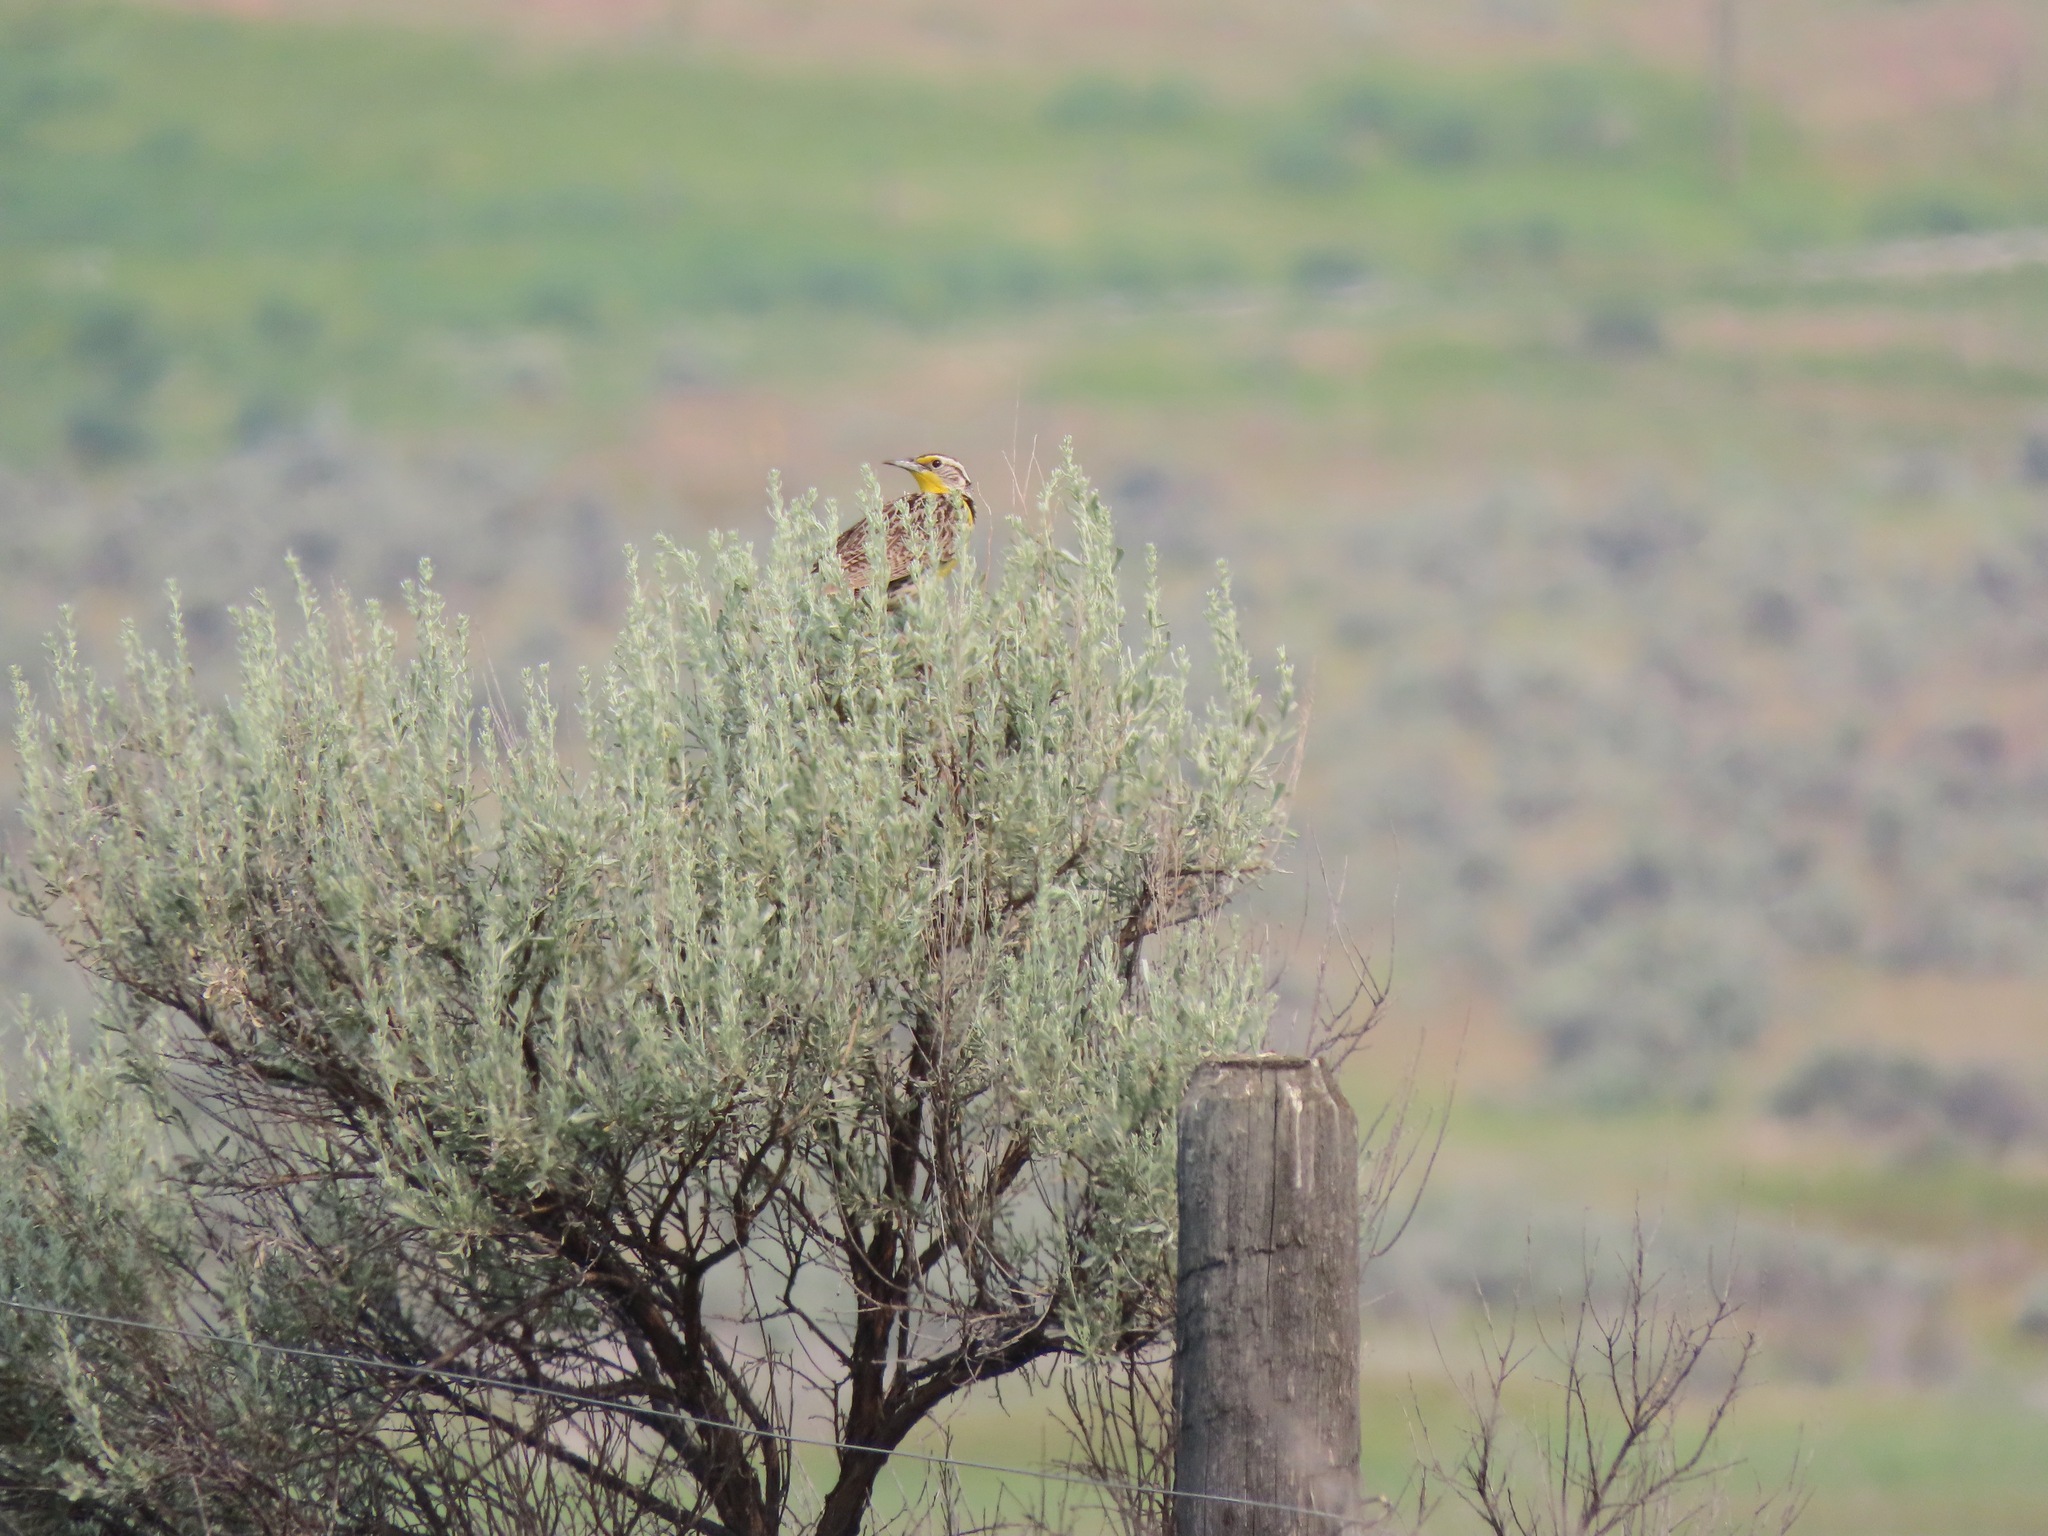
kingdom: Animalia
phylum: Chordata
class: Aves
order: Passeriformes
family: Icteridae
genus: Sturnella
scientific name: Sturnella neglecta
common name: Western meadowlark
